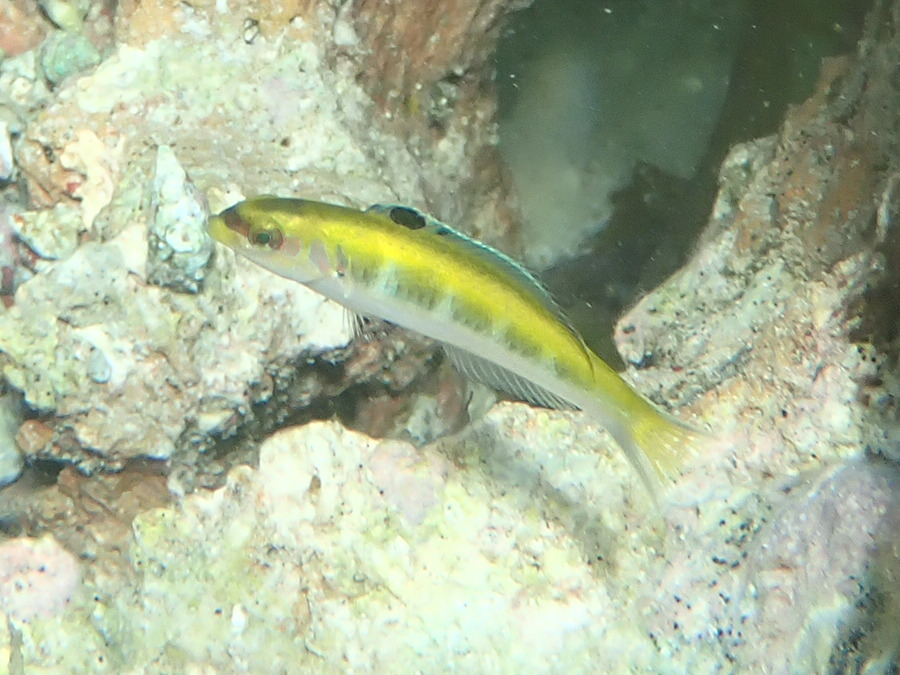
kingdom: Animalia
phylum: Chordata
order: Perciformes
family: Labridae
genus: Thalassoma
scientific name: Thalassoma bifasciatum
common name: Bluehead wrasse
